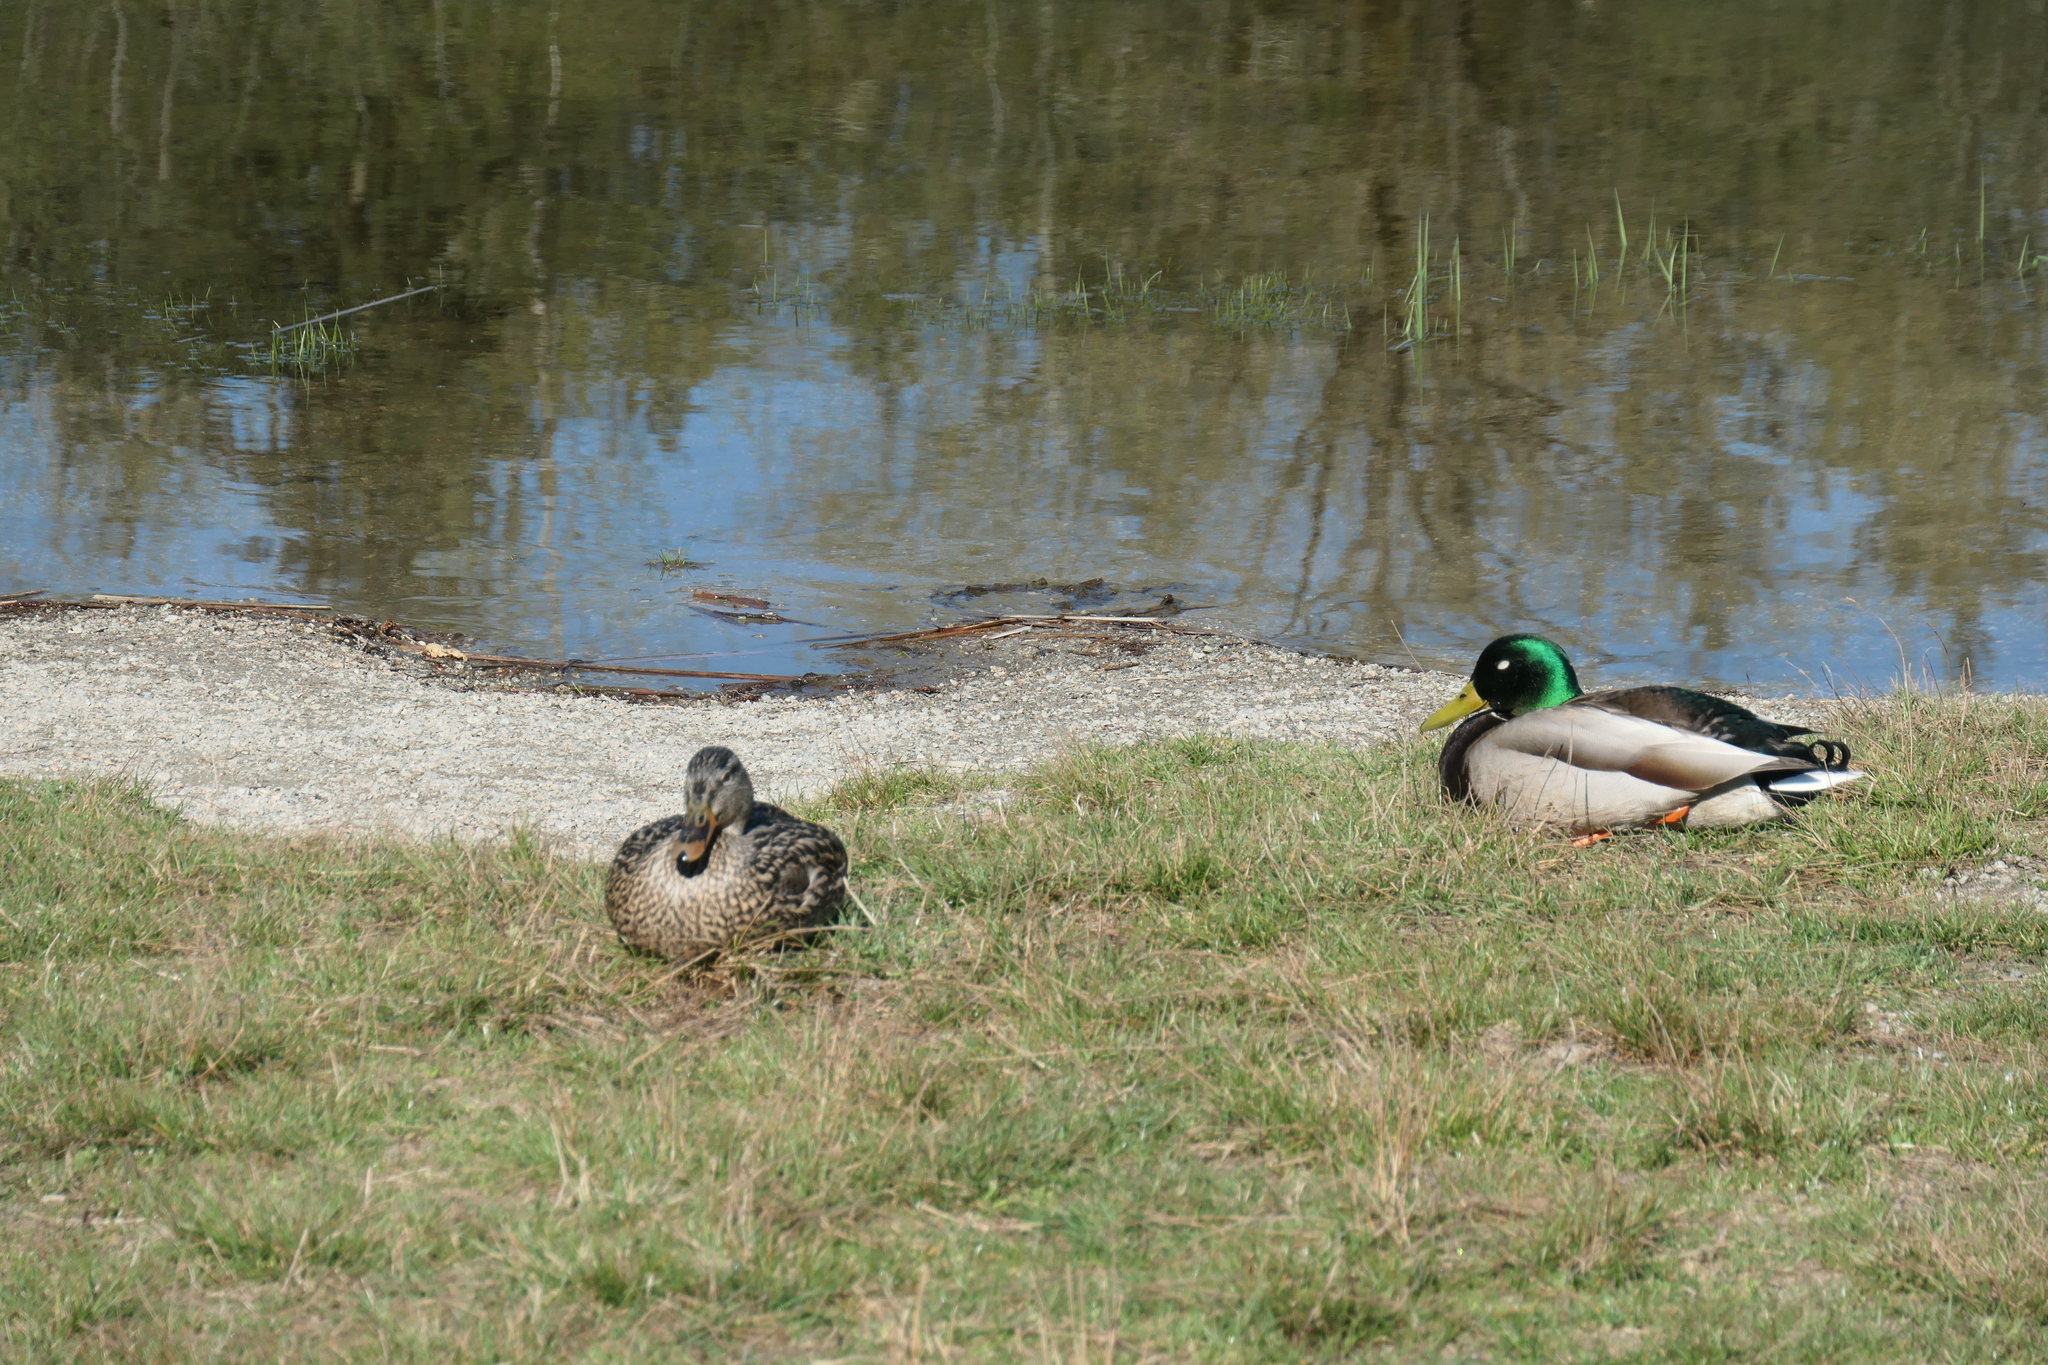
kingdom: Animalia
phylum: Chordata
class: Aves
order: Anseriformes
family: Anatidae
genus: Anas
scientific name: Anas platyrhynchos
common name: Mallard
